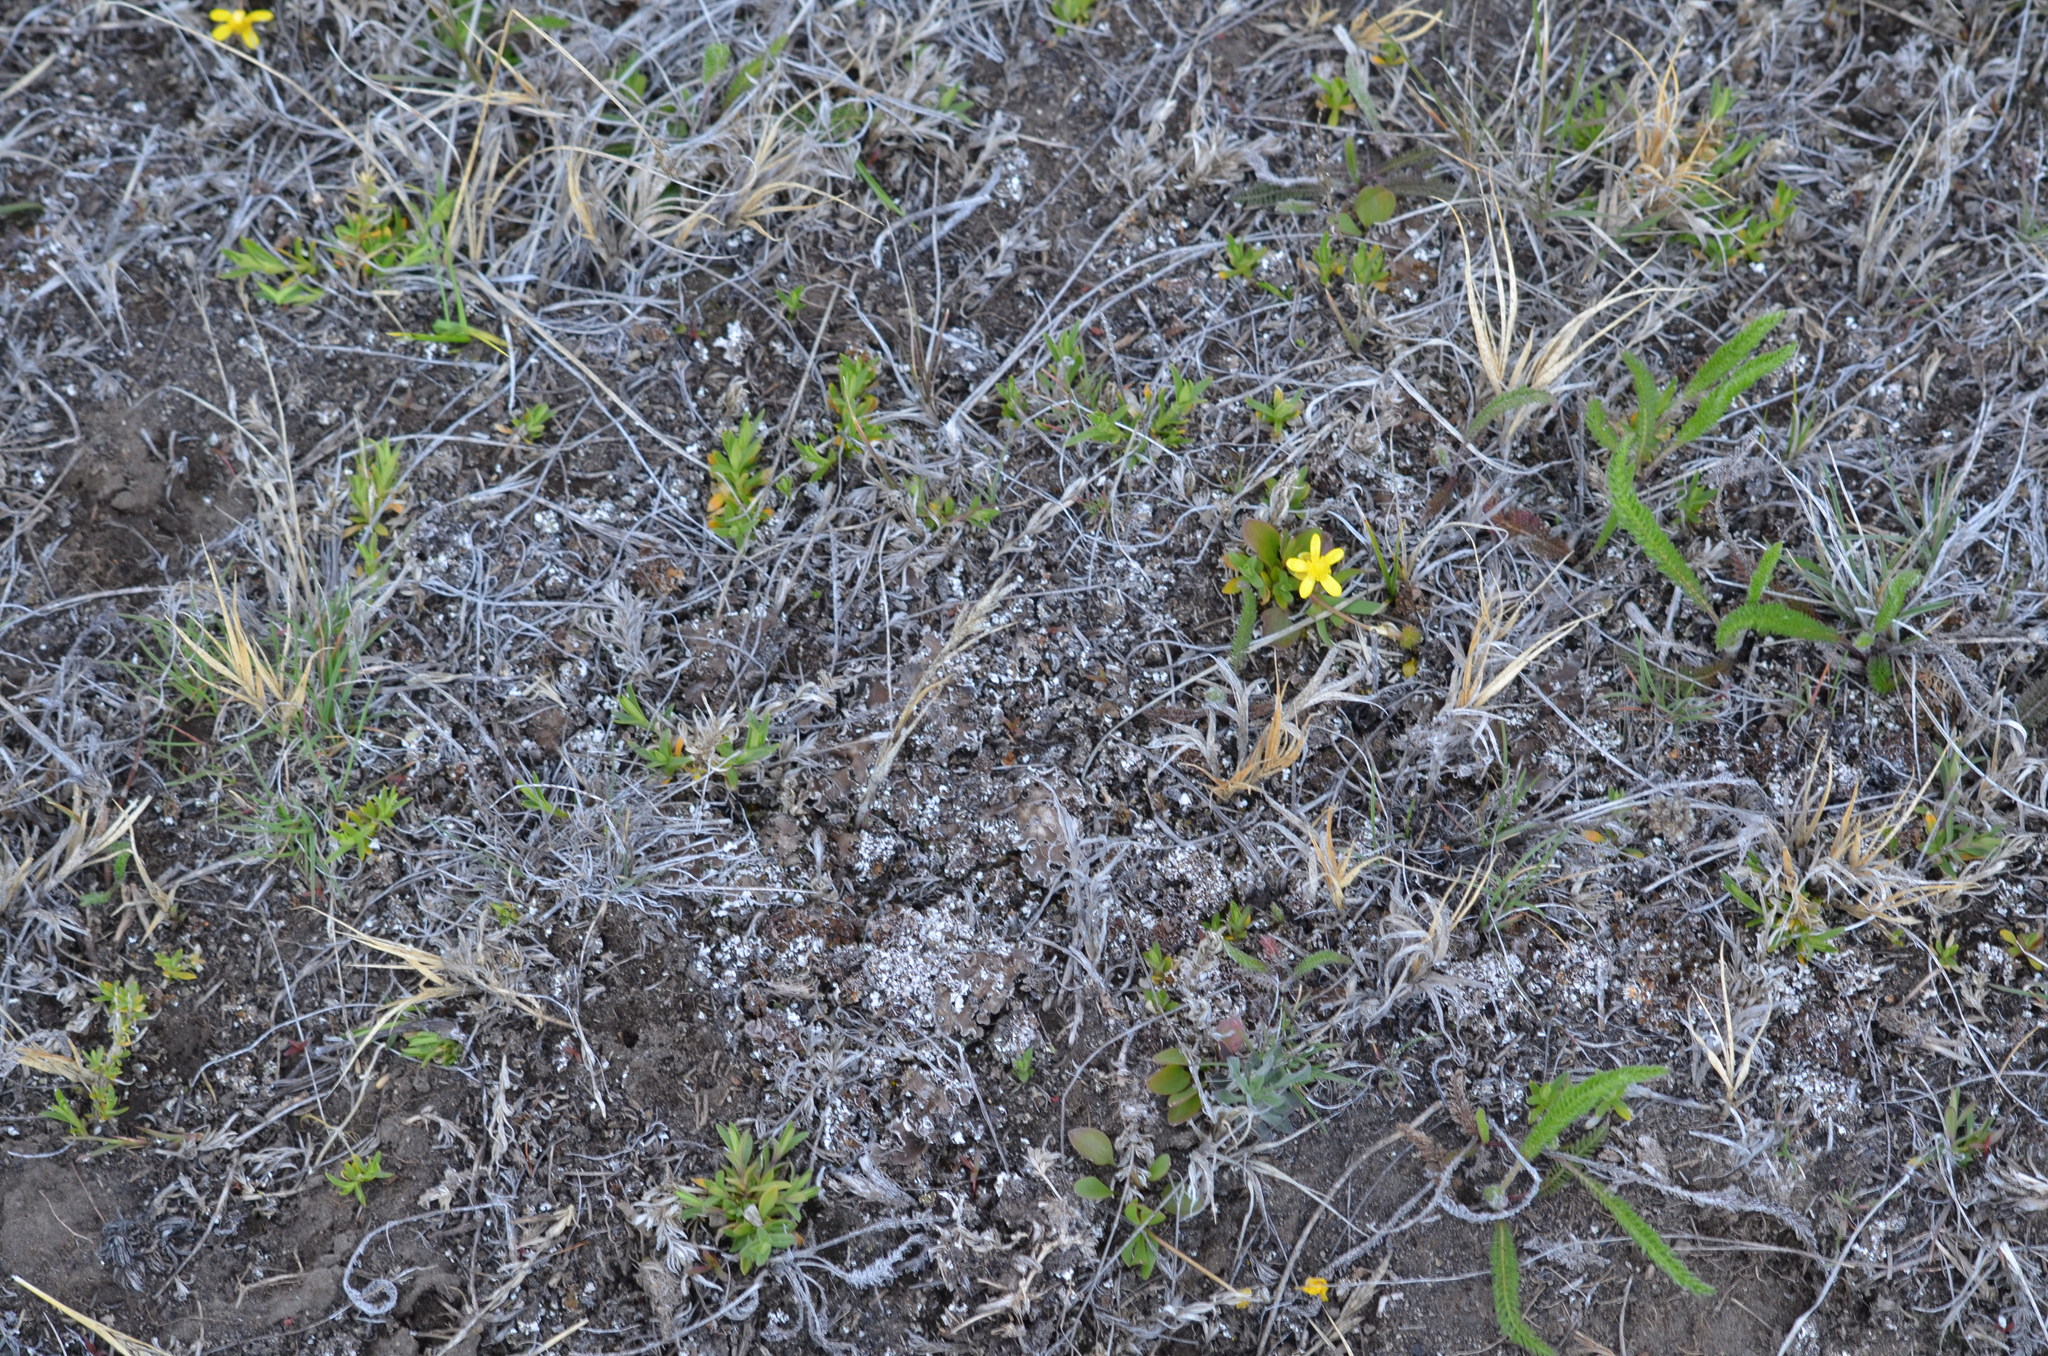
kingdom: Plantae
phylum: Tracheophyta
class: Magnoliopsida
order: Ranunculales
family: Ranunculaceae
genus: Ranunculus
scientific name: Ranunculus glaberrimus
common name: Sagebrush buttercup
